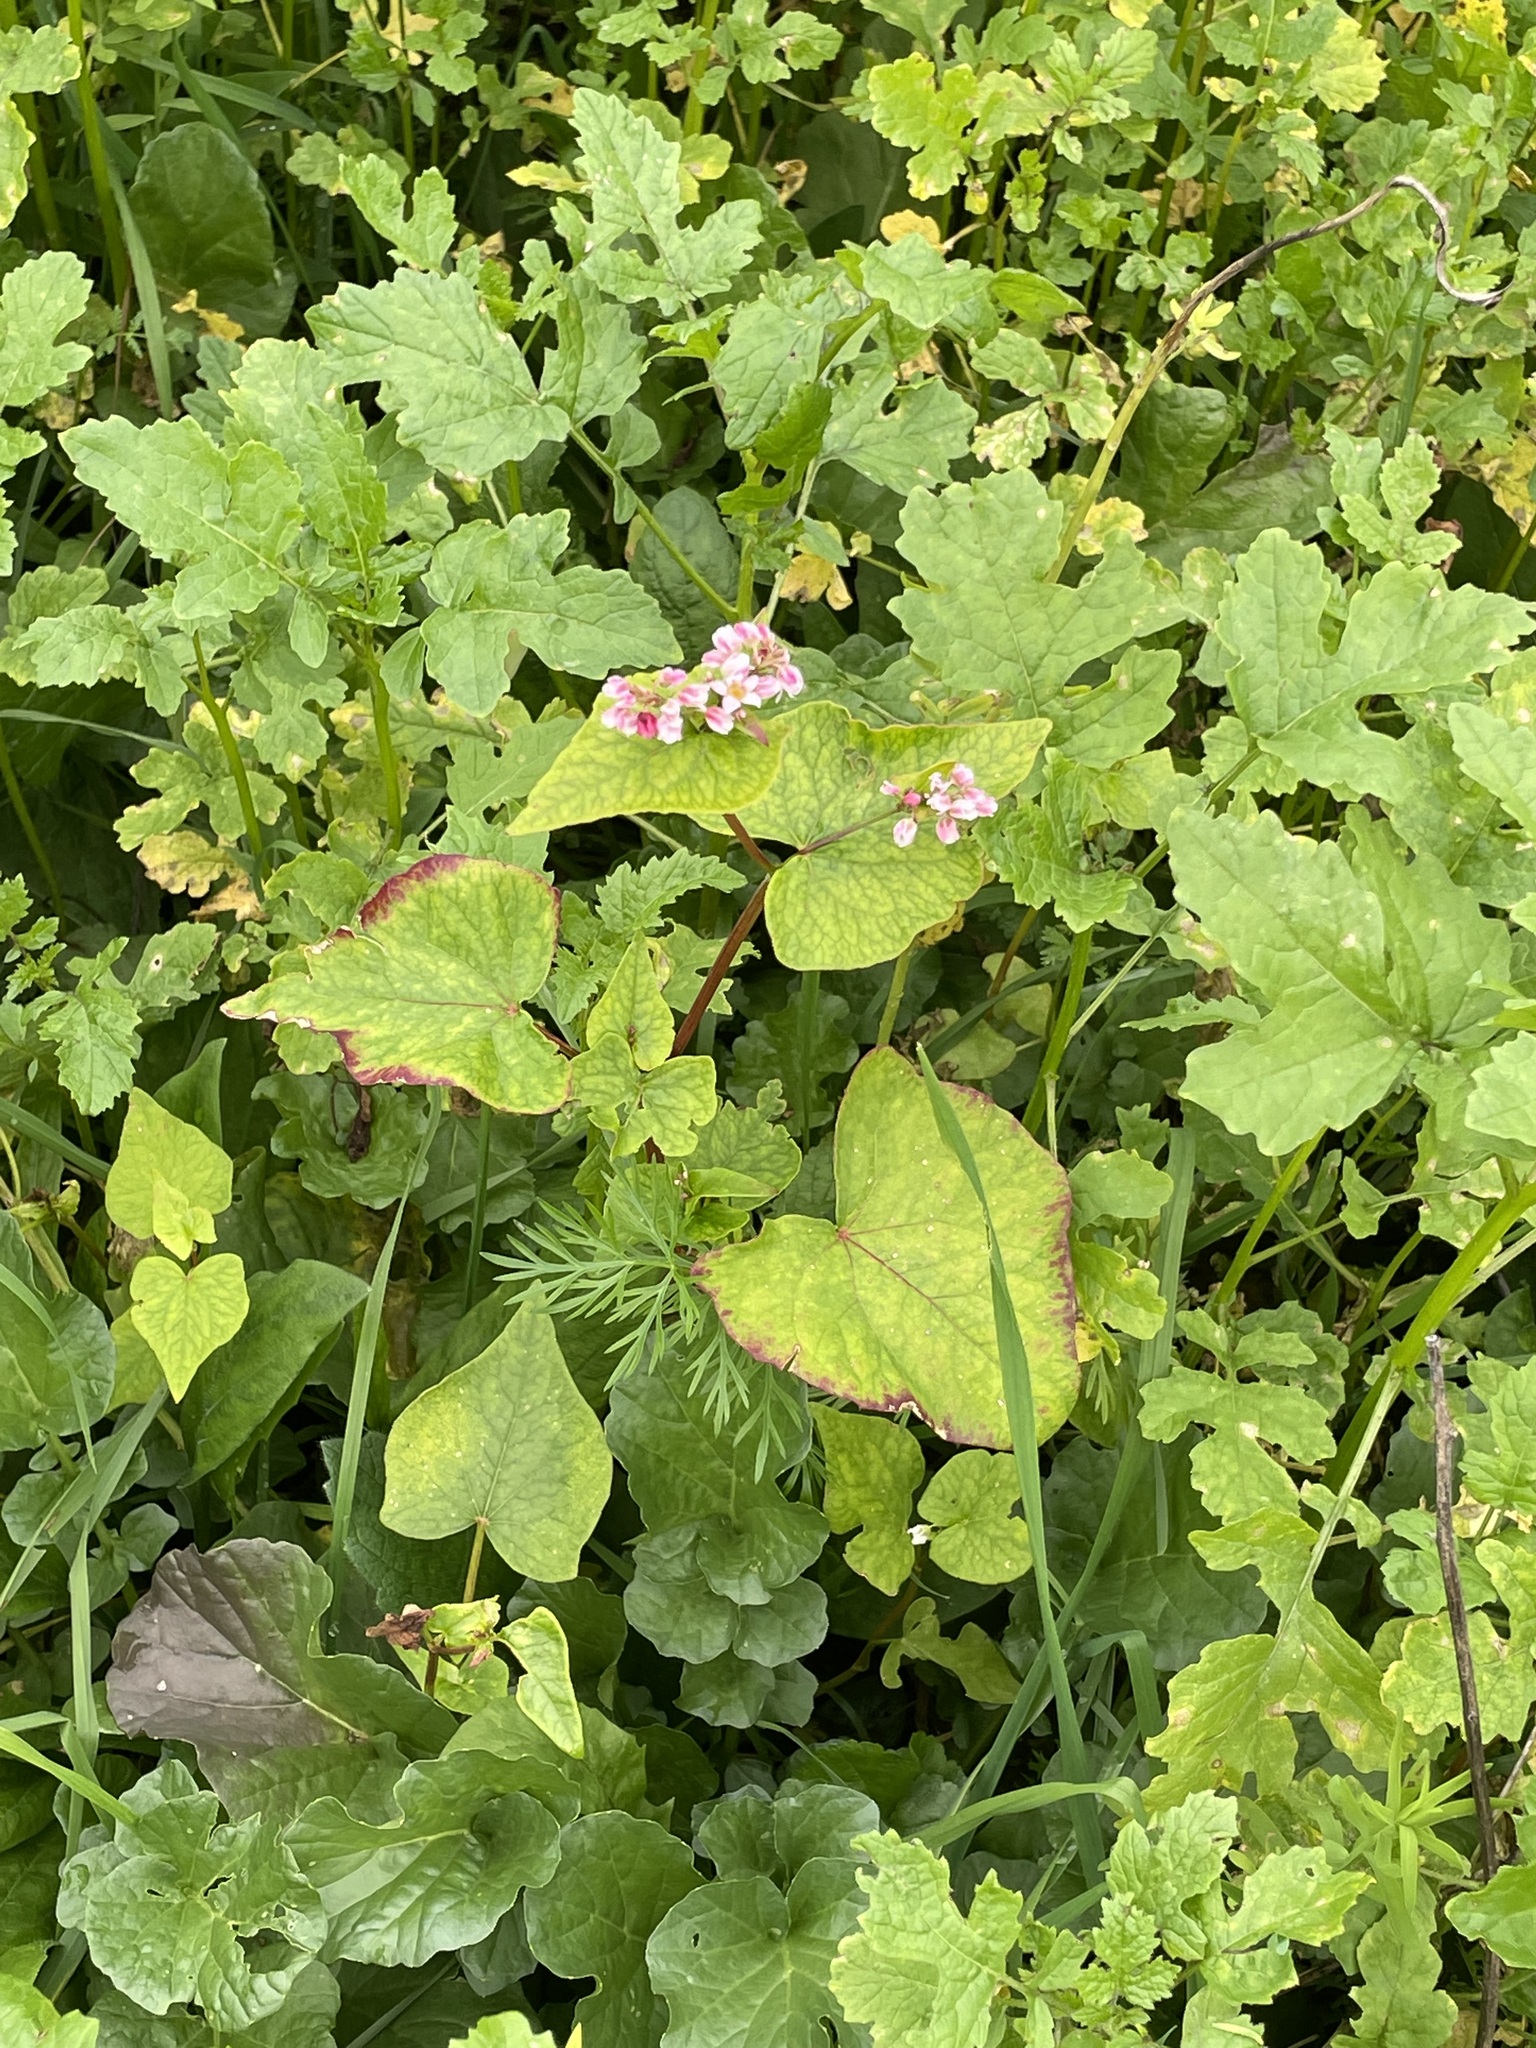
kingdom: Plantae
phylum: Tracheophyta
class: Magnoliopsida
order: Caryophyllales
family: Polygonaceae
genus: Fagopyrum
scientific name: Fagopyrum esculentum
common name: Buckwheat
